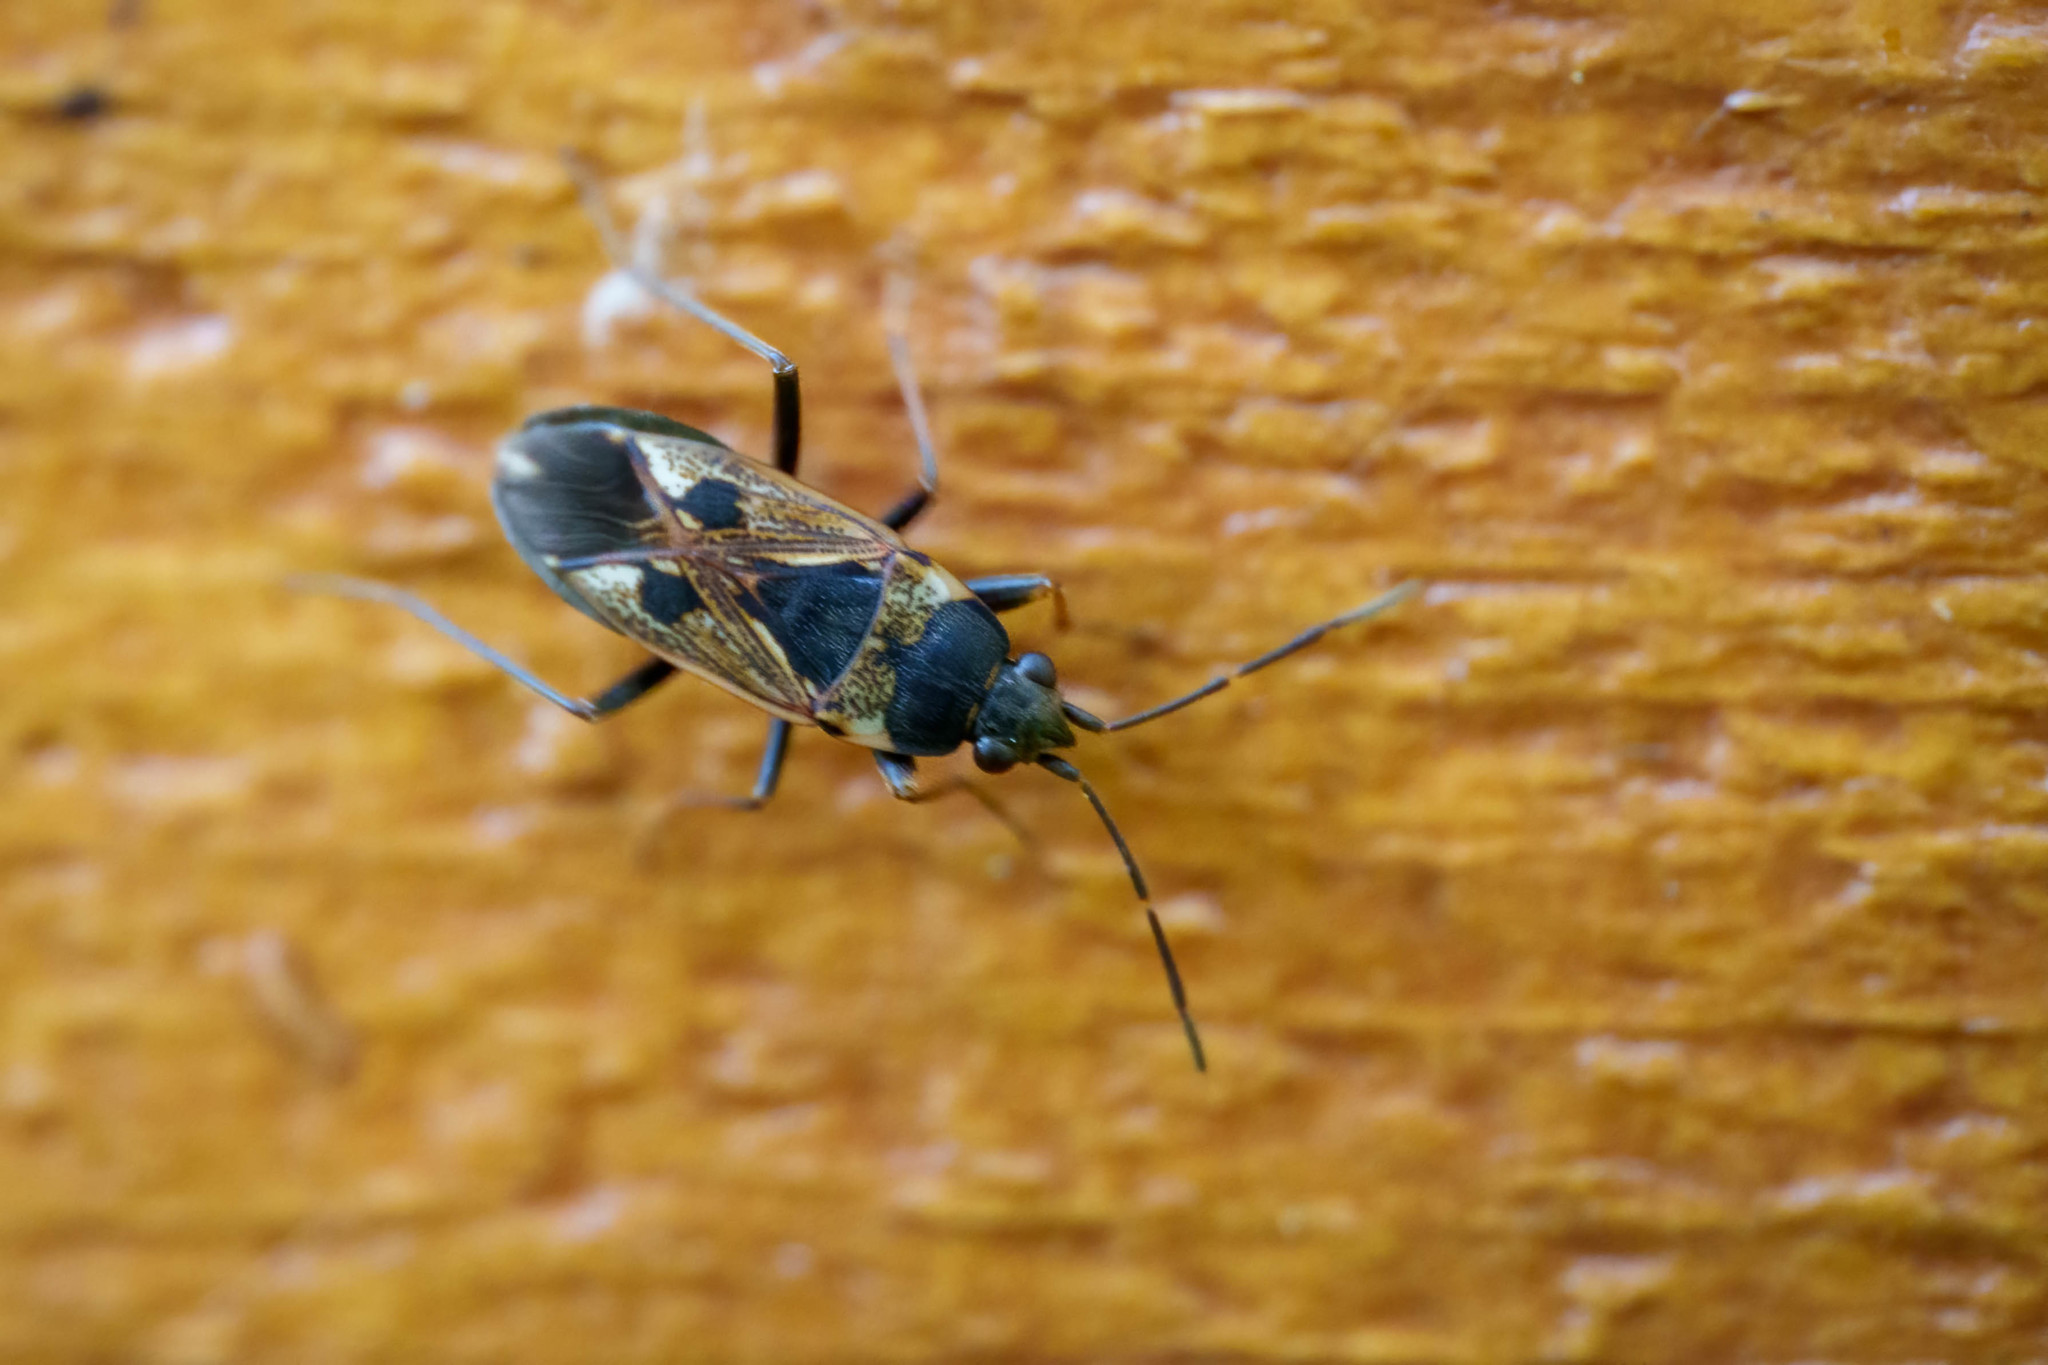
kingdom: Animalia
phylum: Arthropoda
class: Insecta
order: Hemiptera
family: Rhyparochromidae
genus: Rhyparochromus
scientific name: Rhyparochromus vulgaris
